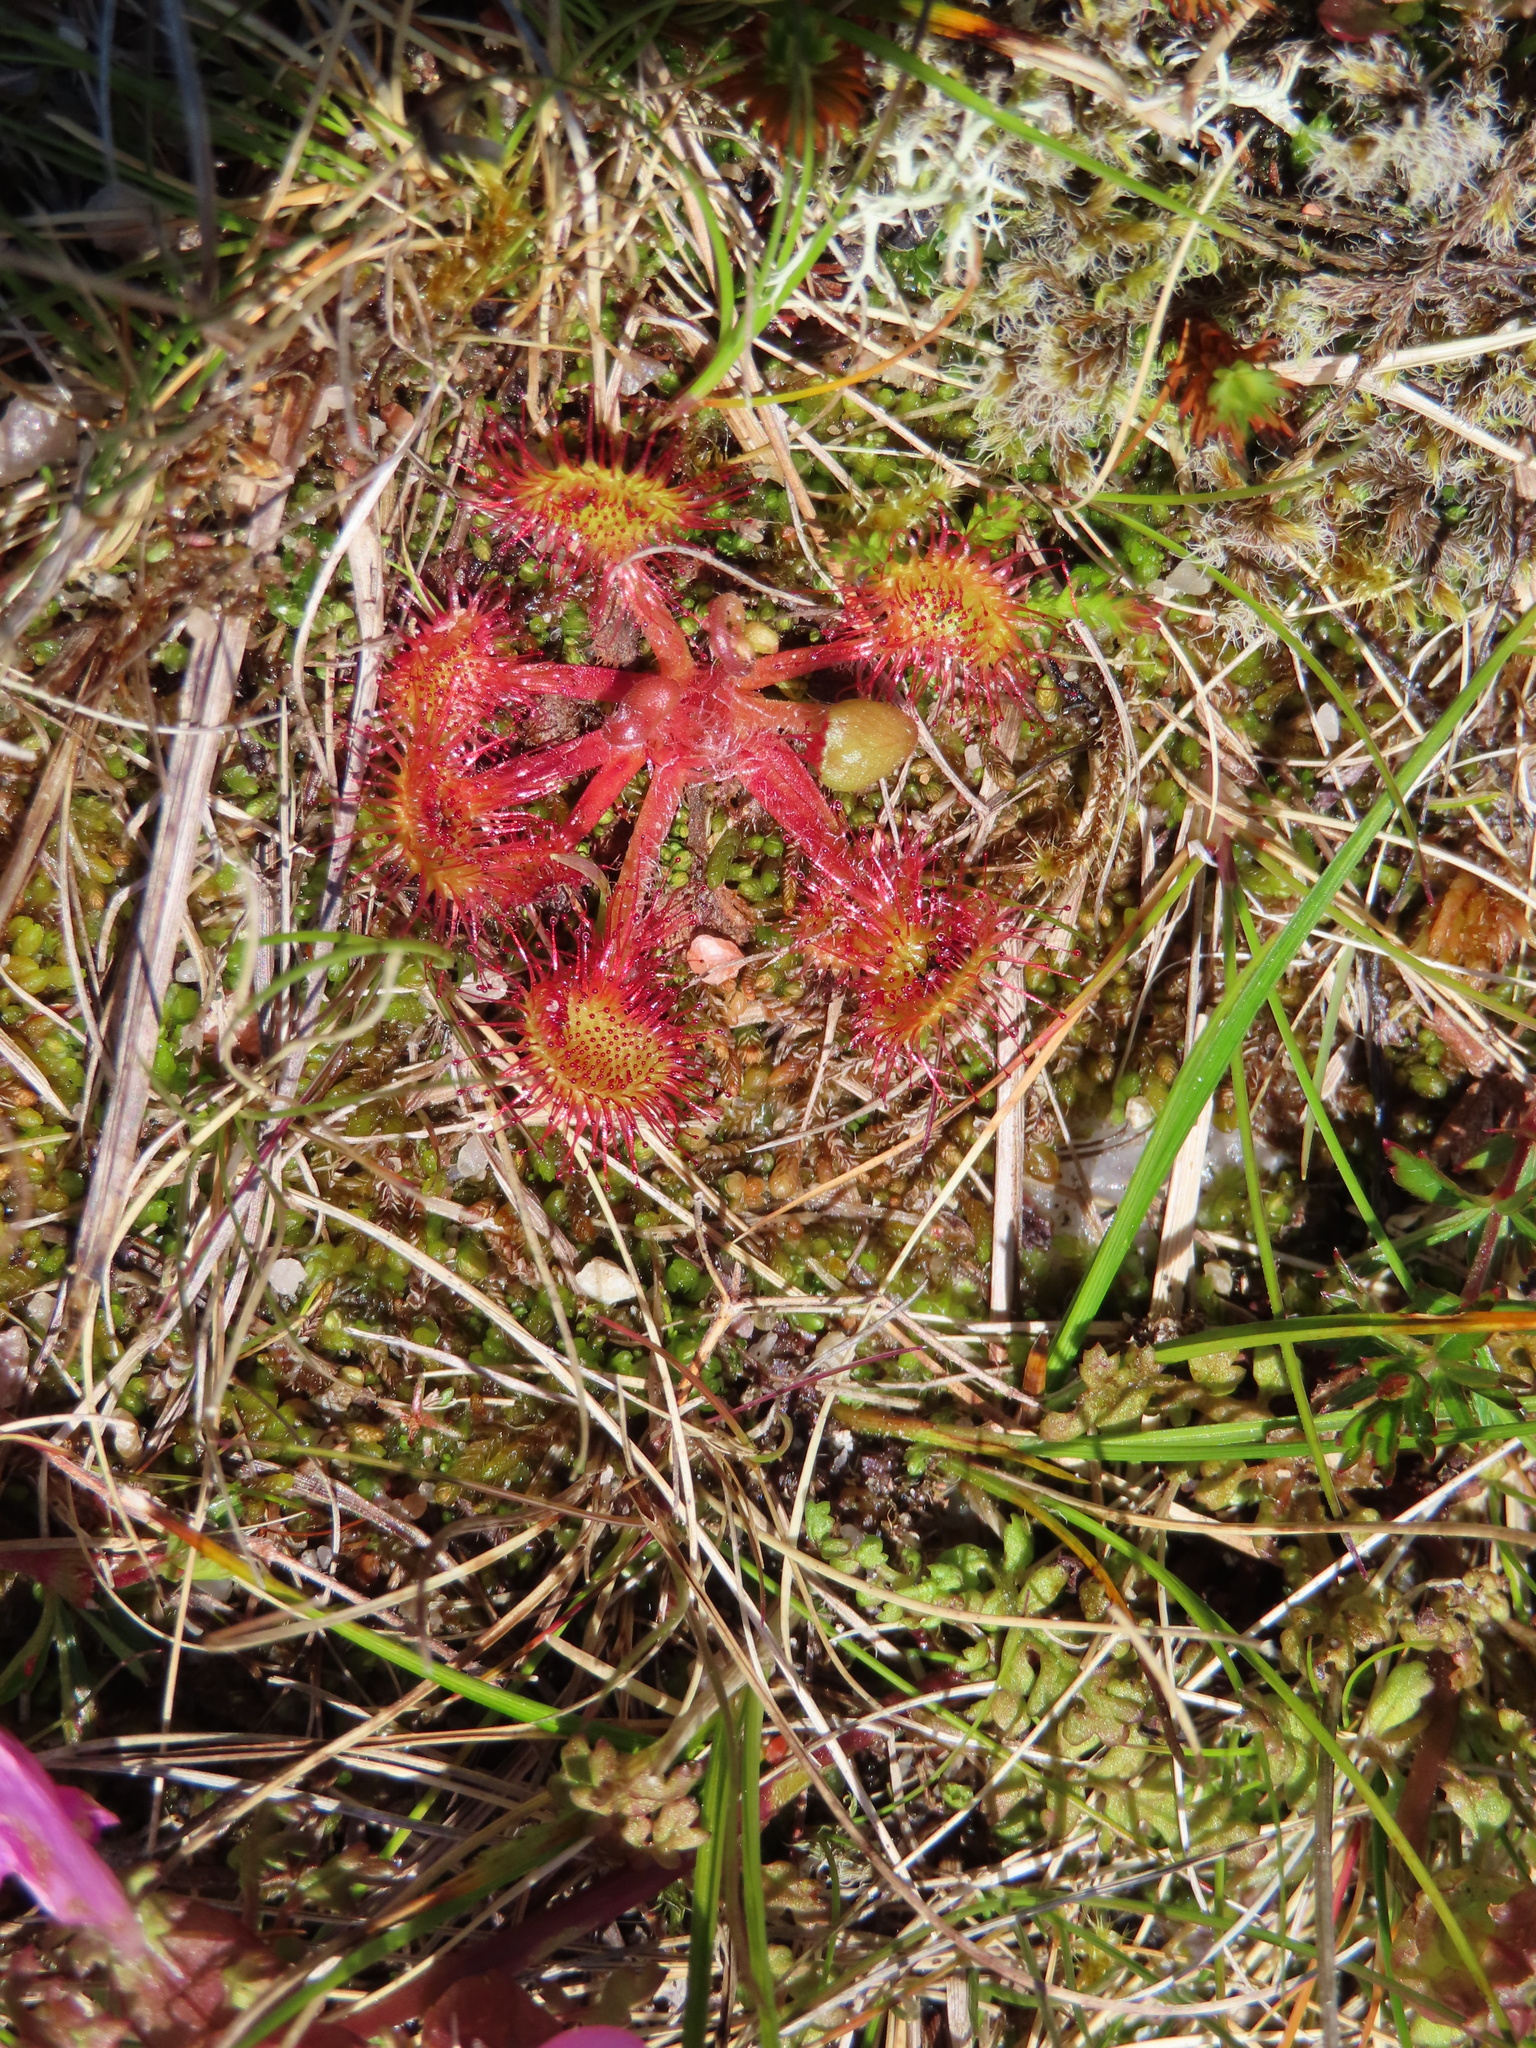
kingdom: Plantae
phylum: Tracheophyta
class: Magnoliopsida
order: Caryophyllales
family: Droseraceae
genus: Drosera
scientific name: Drosera rotundifolia
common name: Round-leaved sundew
